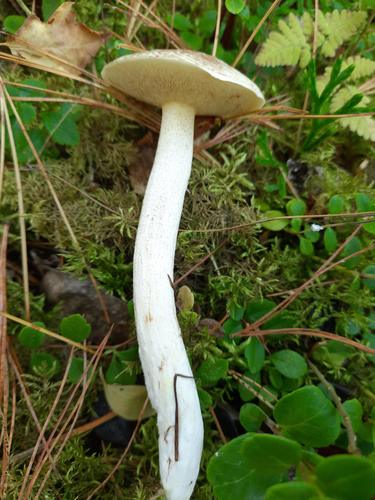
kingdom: Fungi
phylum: Basidiomycota
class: Agaricomycetes
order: Boletales
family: Suillaceae
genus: Suillus
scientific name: Suillus placidus
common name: Slippery white bolete
